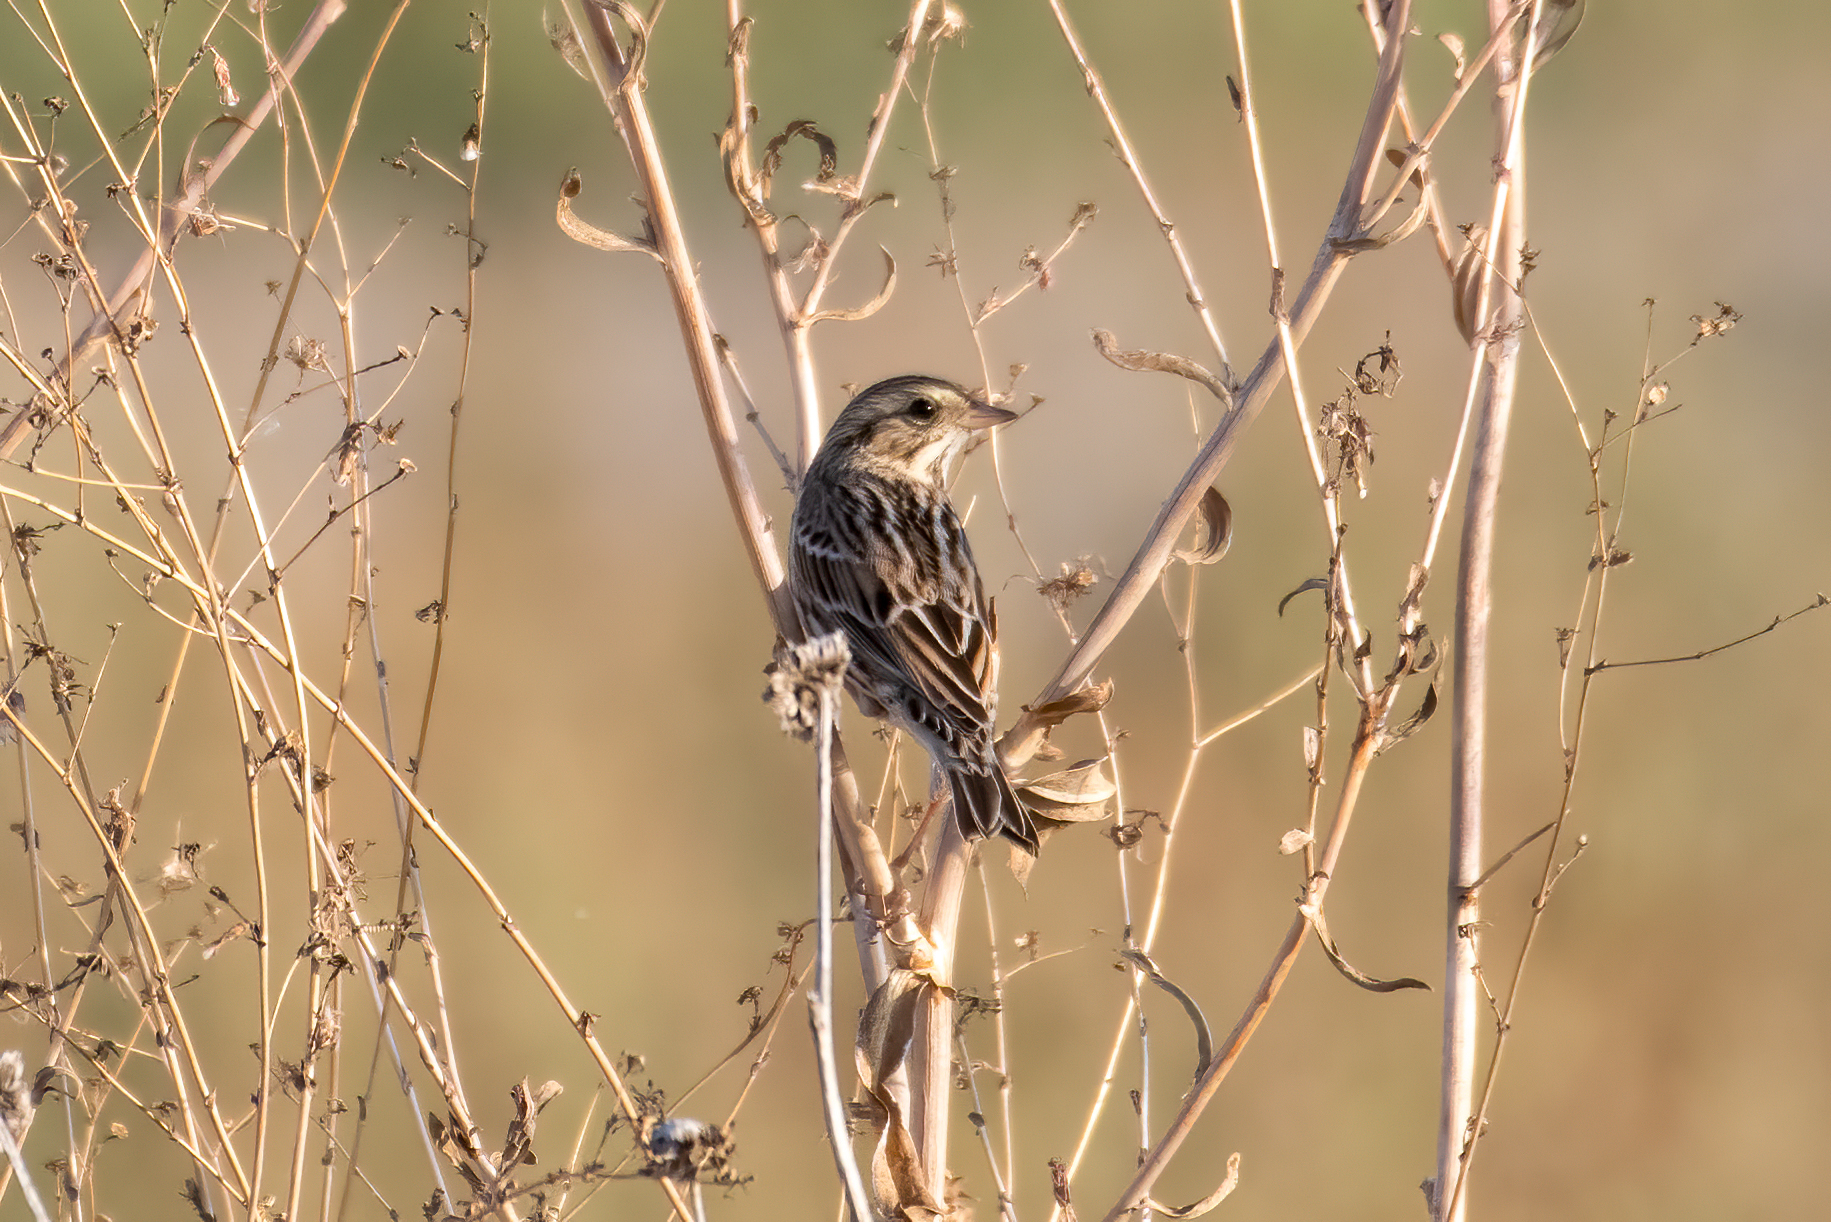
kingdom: Animalia
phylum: Chordata
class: Aves
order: Passeriformes
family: Passerellidae
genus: Passerculus
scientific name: Passerculus sandwichensis
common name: Savannah sparrow
